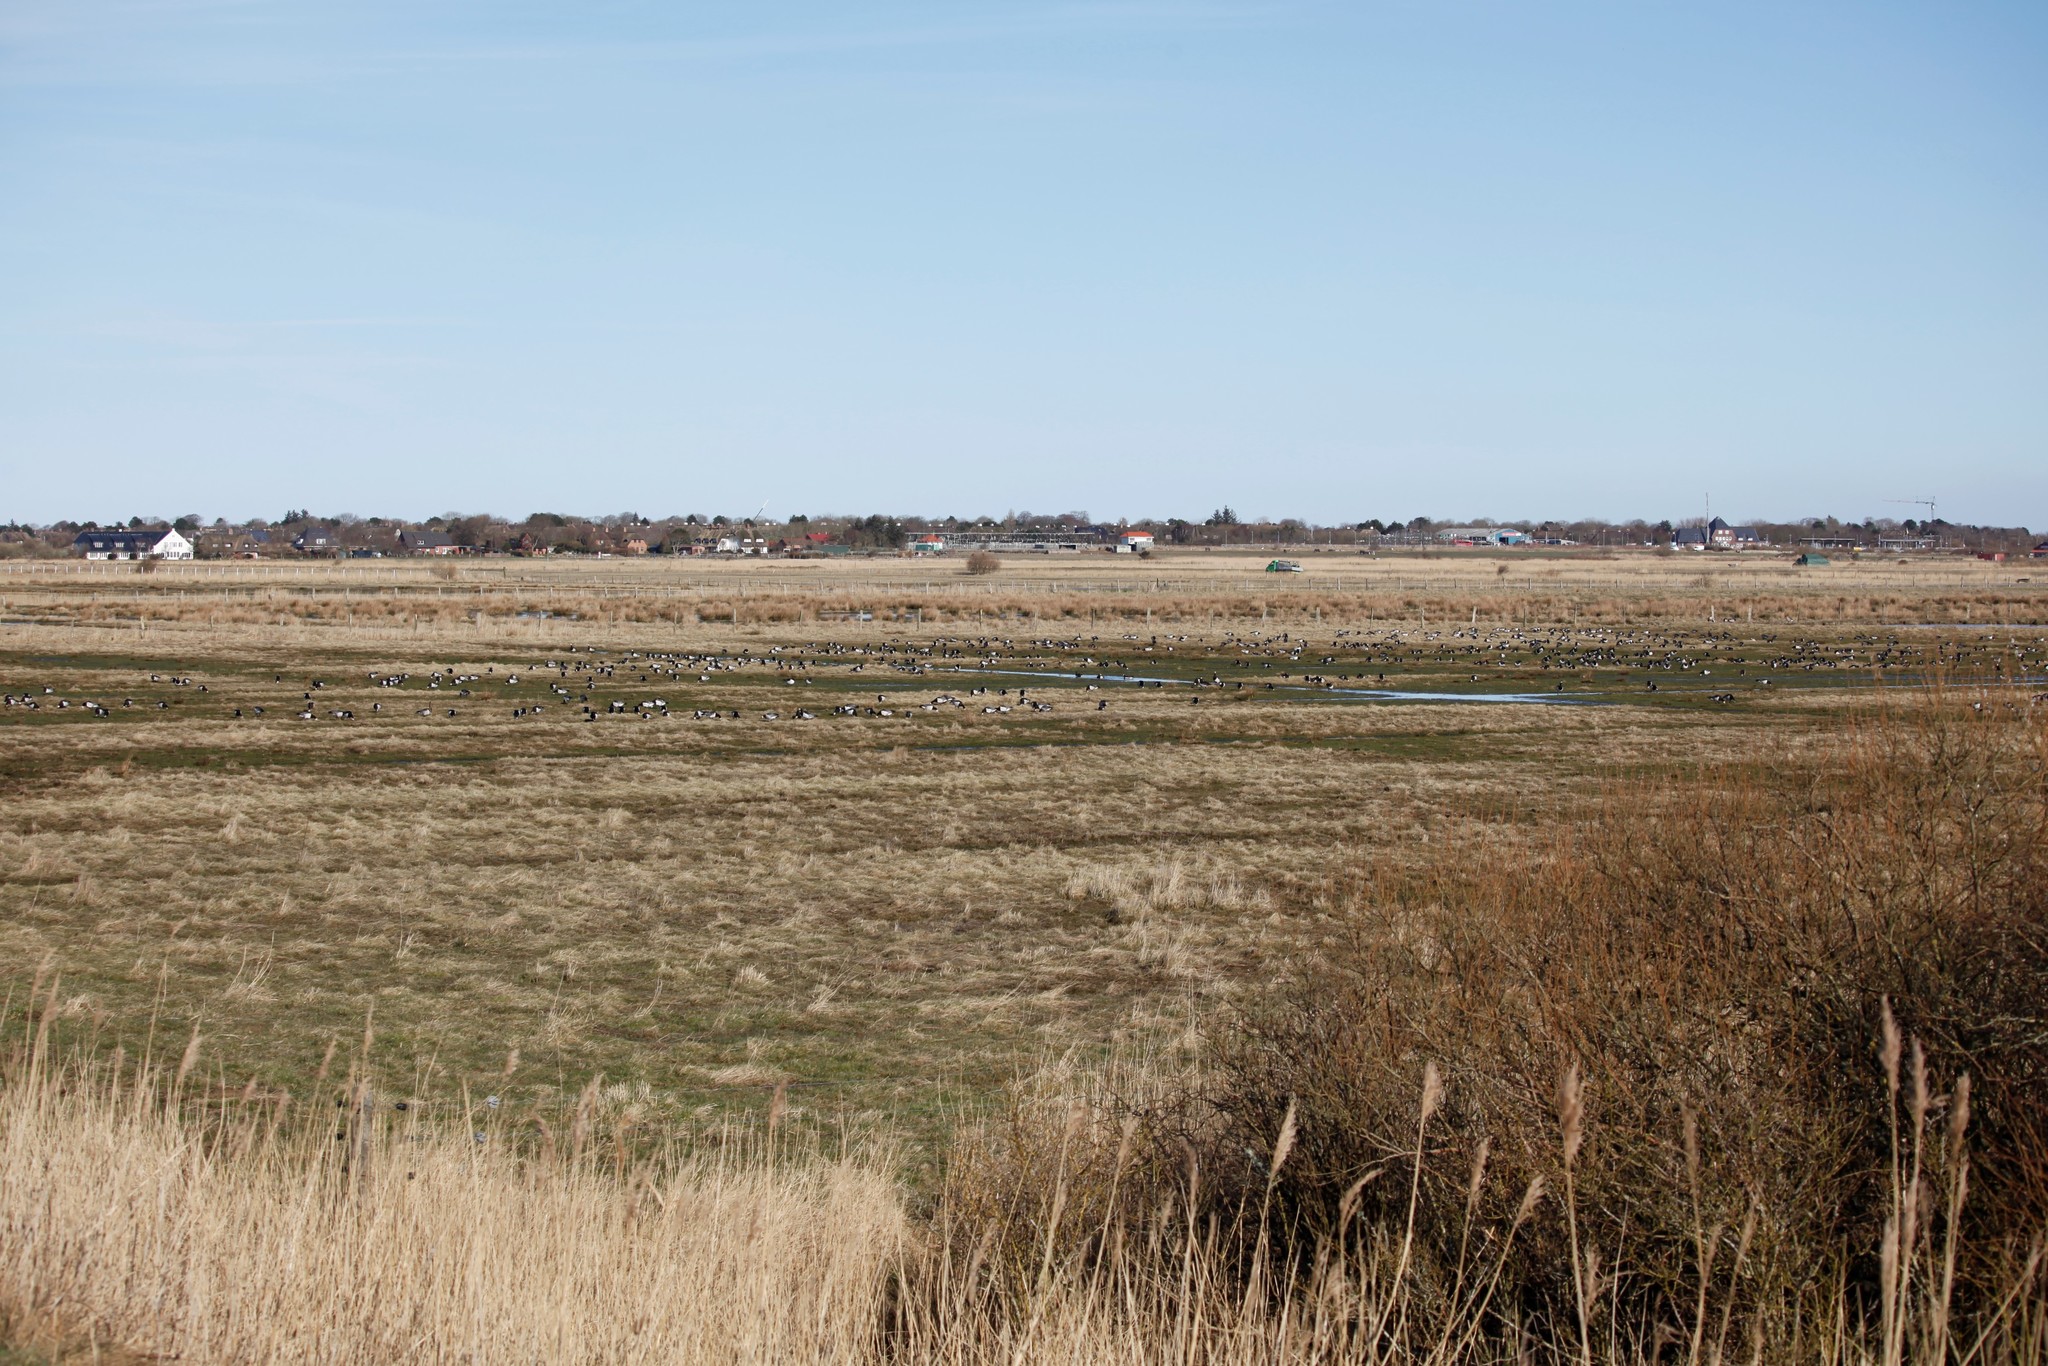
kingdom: Animalia
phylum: Chordata
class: Aves
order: Anseriformes
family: Anatidae
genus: Branta
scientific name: Branta leucopsis
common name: Barnacle goose
